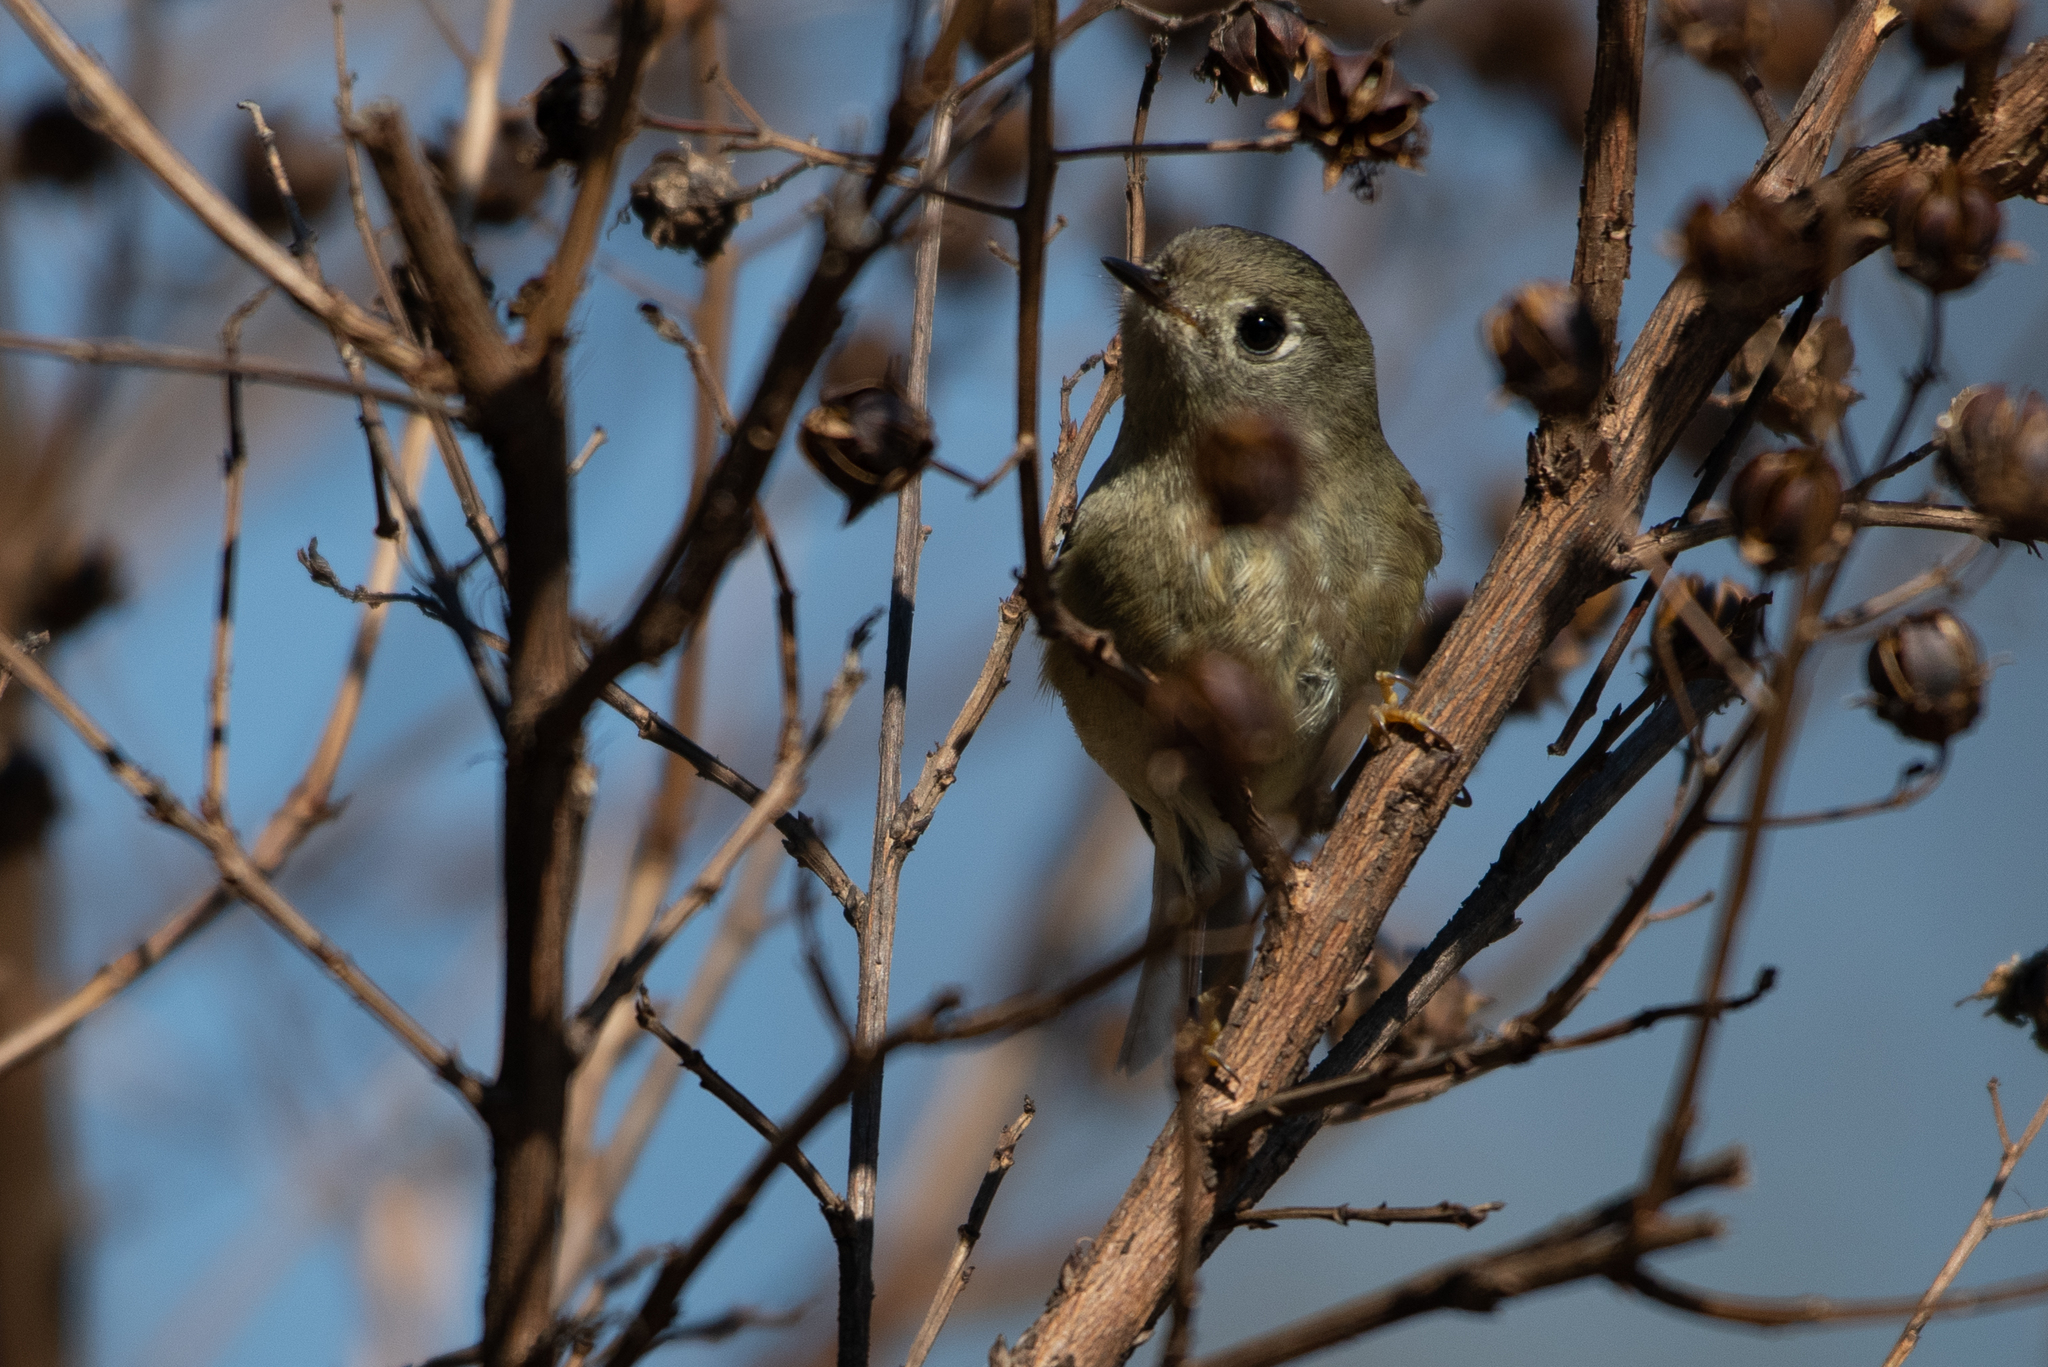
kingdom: Animalia
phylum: Chordata
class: Aves
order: Passeriformes
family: Regulidae
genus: Regulus
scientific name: Regulus calendula
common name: Ruby-crowned kinglet
